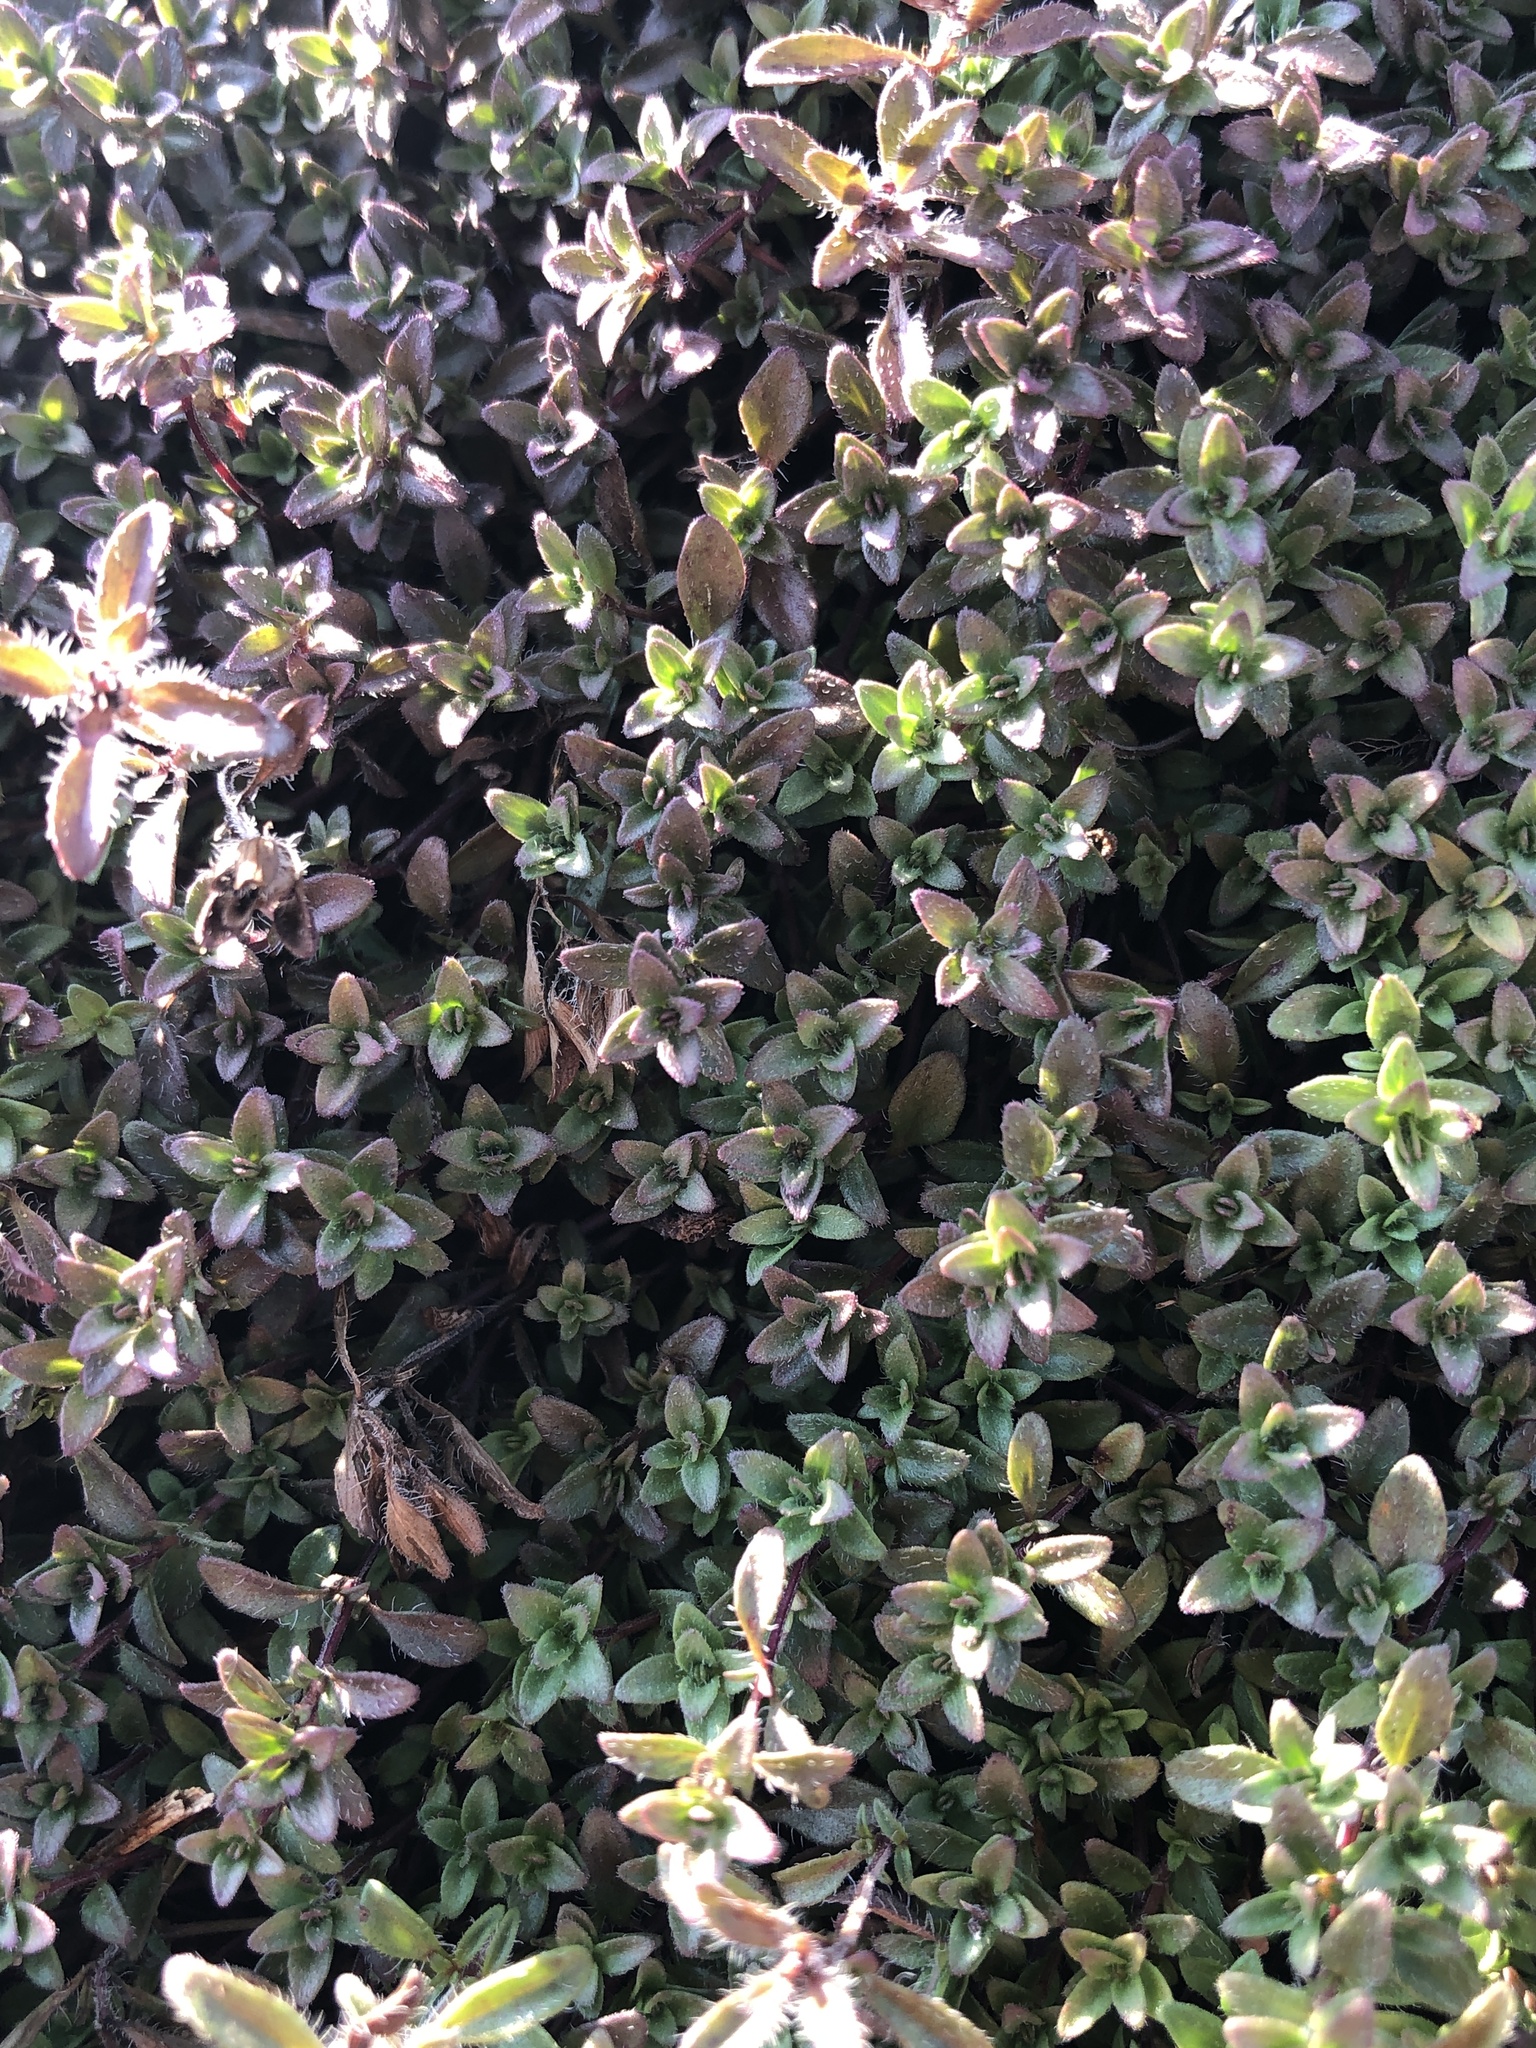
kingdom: Plantae
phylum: Tracheophyta
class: Magnoliopsida
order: Lamiales
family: Lamiaceae
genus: Thymus
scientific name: Thymus
